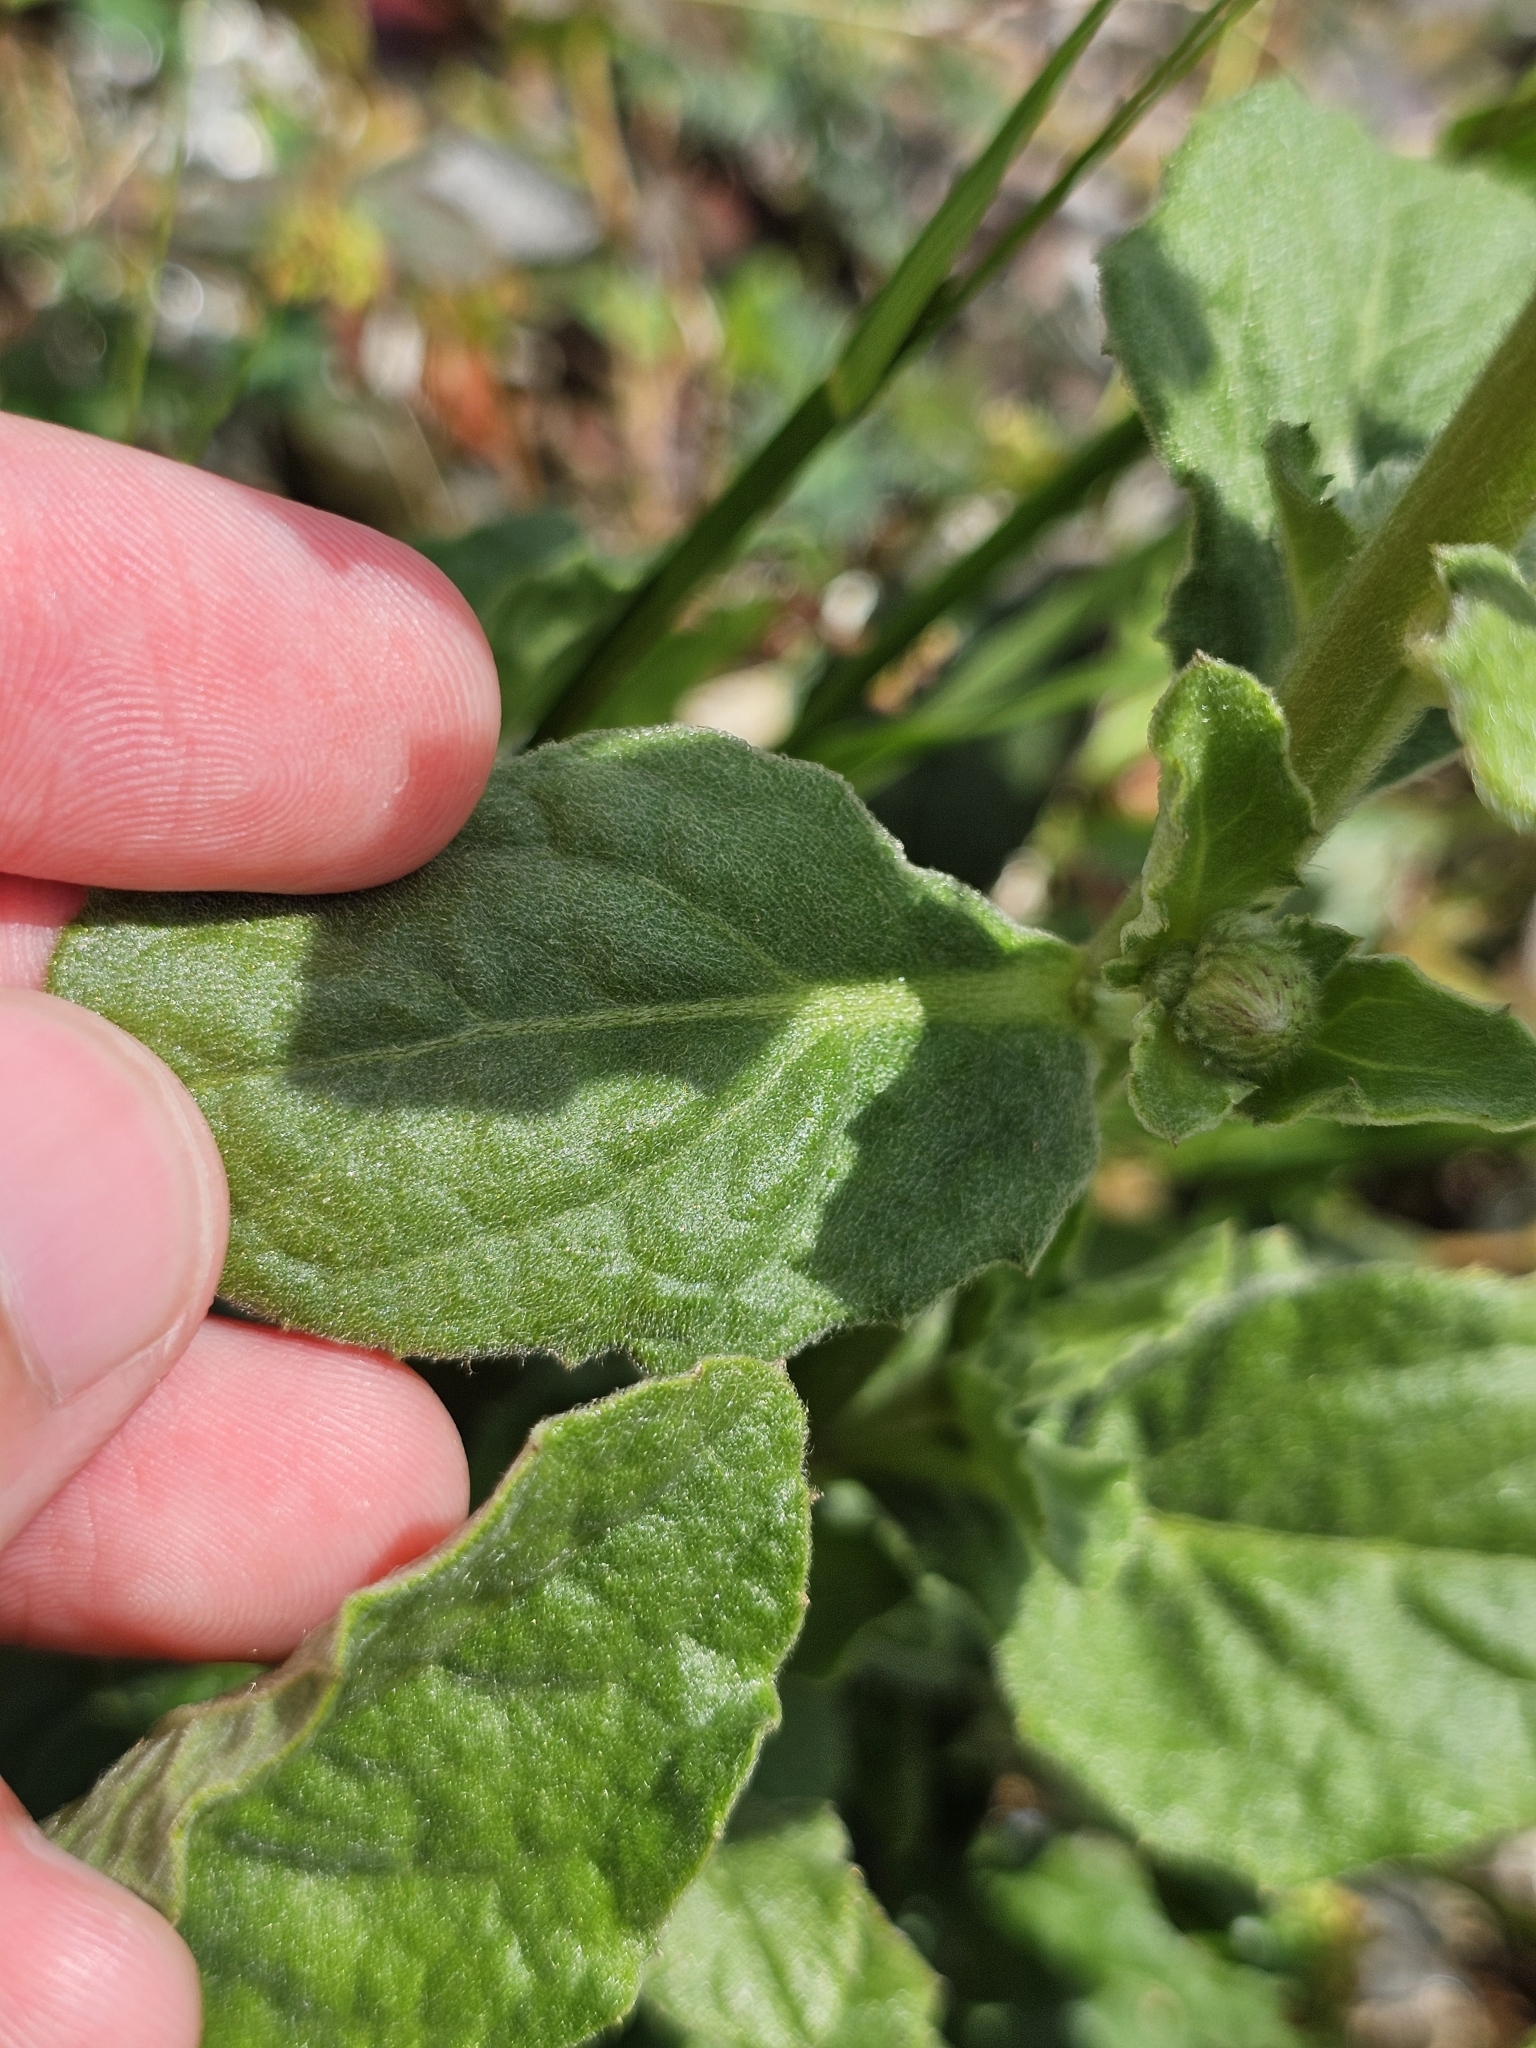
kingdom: Plantae
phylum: Tracheophyta
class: Magnoliopsida
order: Asterales
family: Asteraceae
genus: Blumea
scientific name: Blumea lacera
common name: Malay blumea
